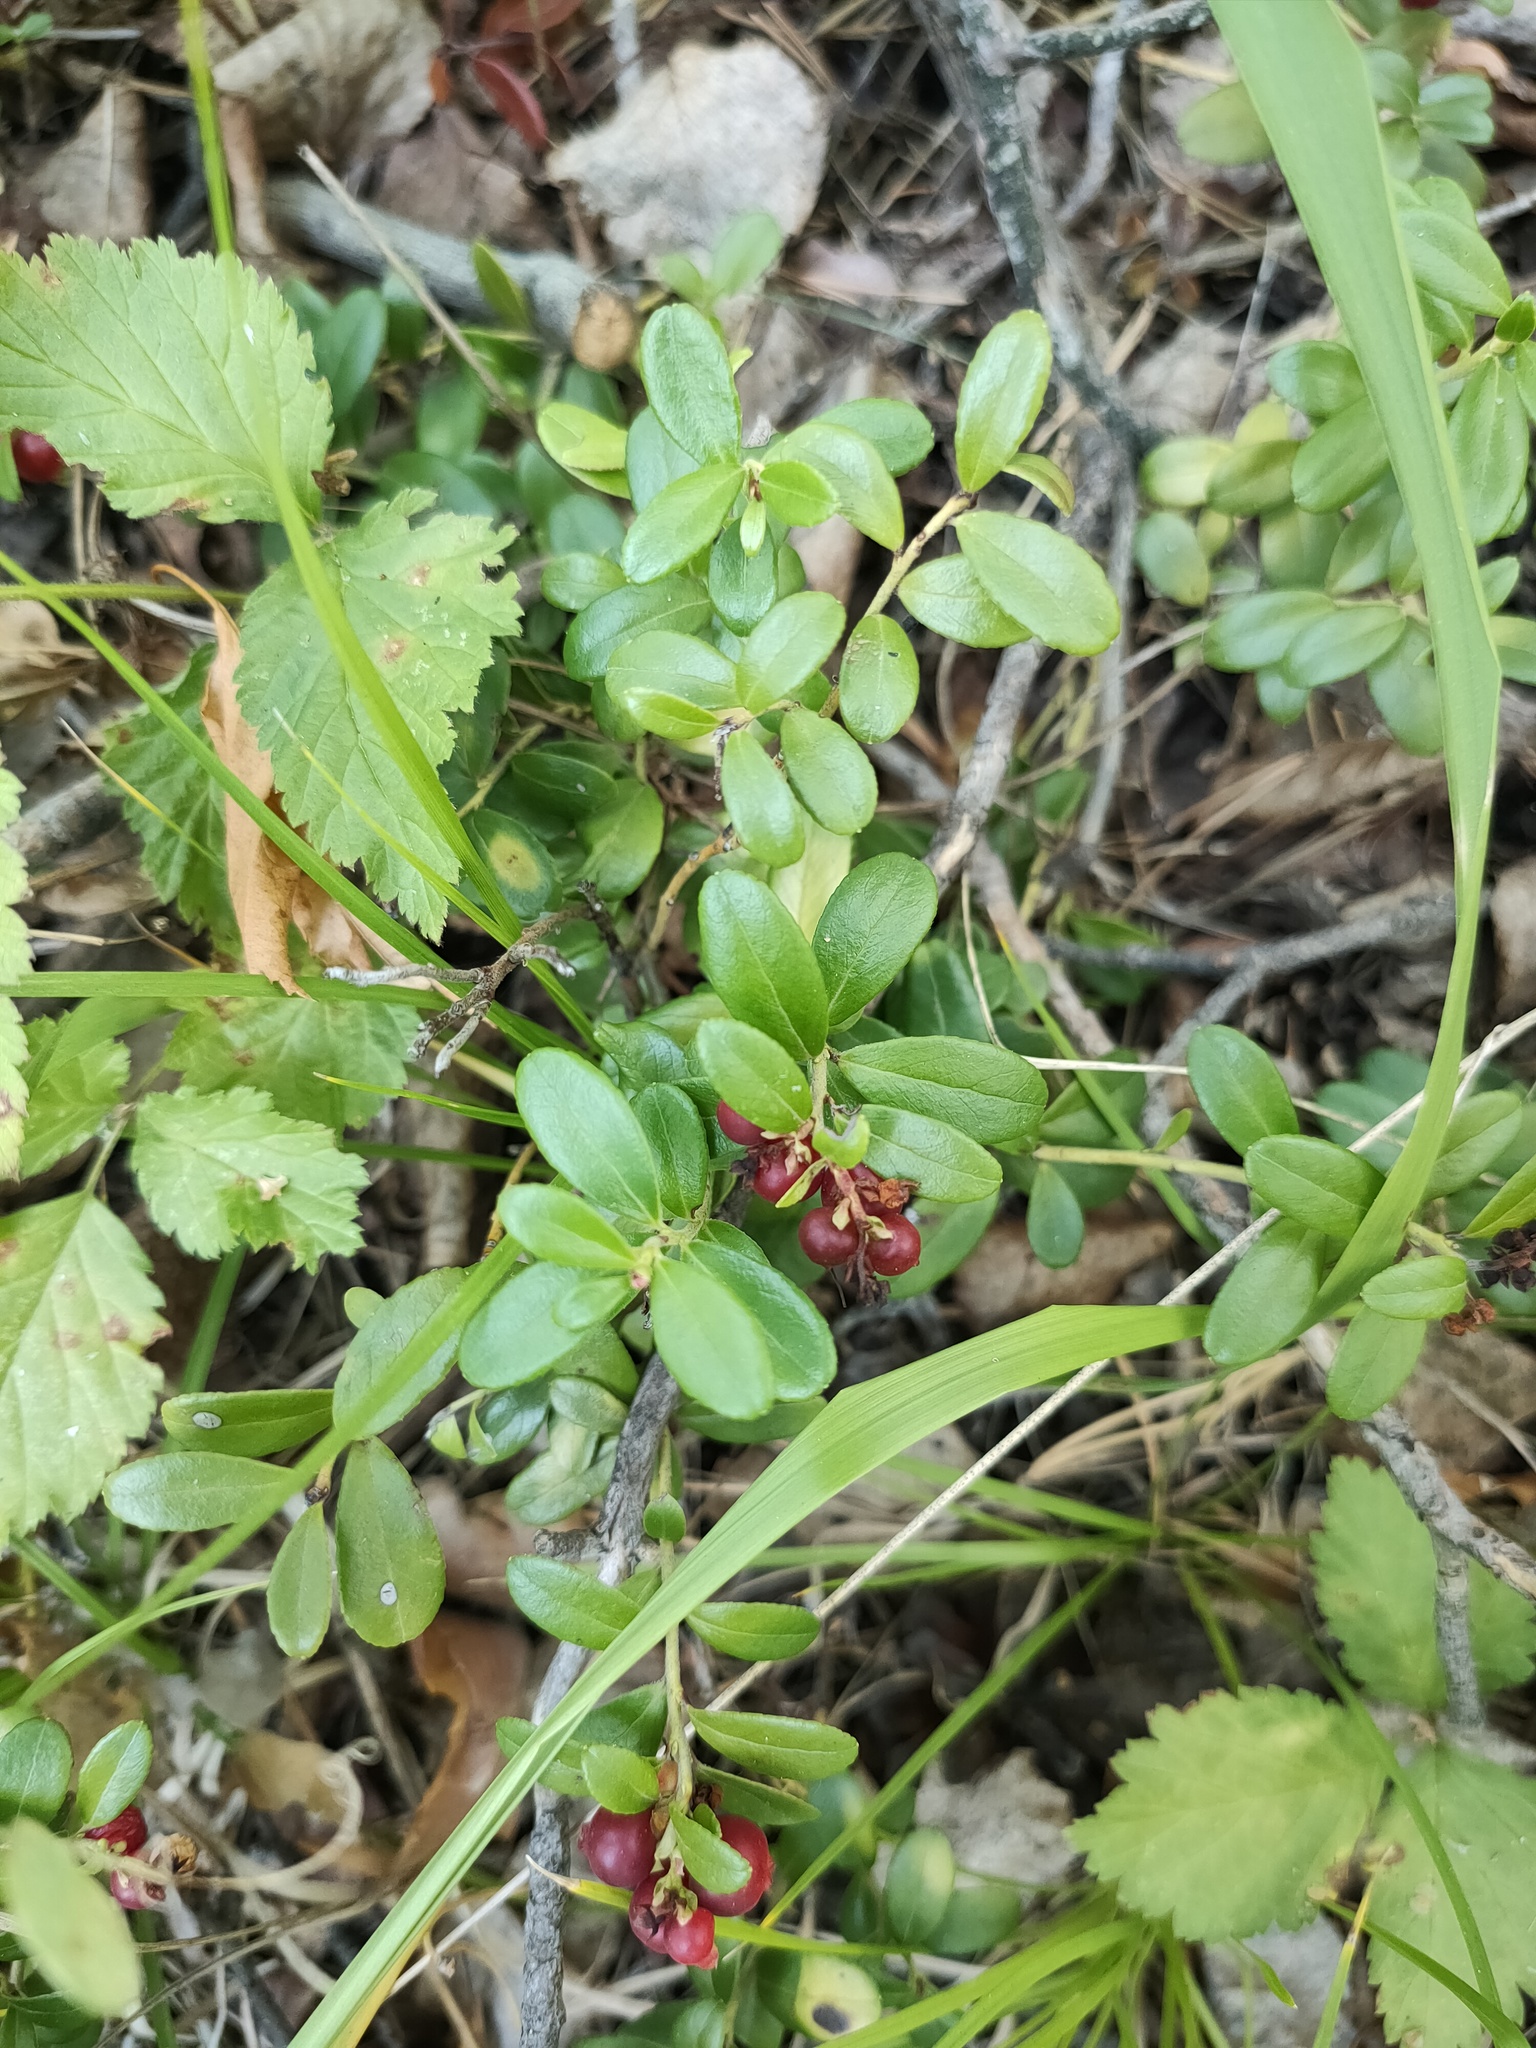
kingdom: Plantae
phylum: Tracheophyta
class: Magnoliopsida
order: Ericales
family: Ericaceae
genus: Vaccinium
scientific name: Vaccinium vitis-idaea
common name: Cowberry
